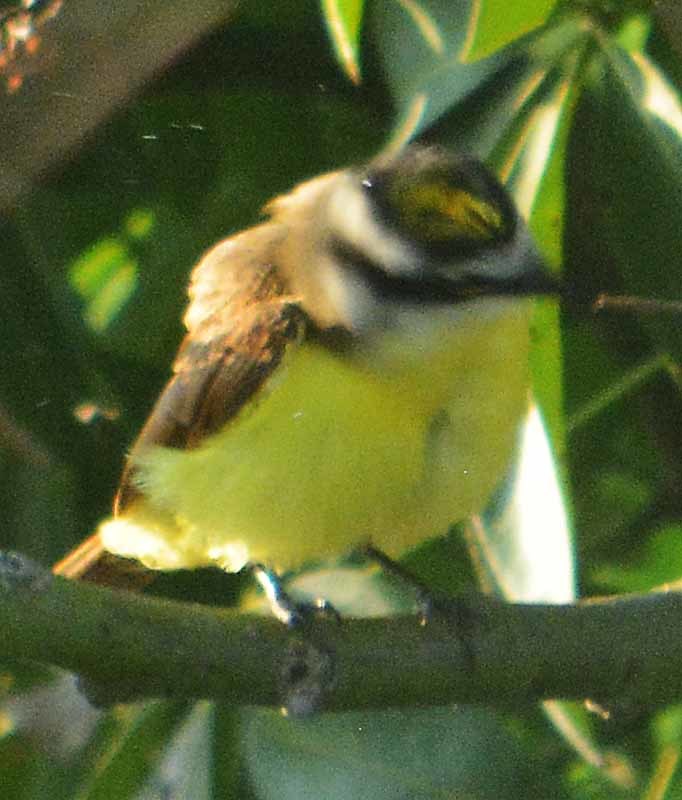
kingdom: Animalia
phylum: Chordata
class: Aves
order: Passeriformes
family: Tyrannidae
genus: Myiozetetes
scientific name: Myiozetetes similis
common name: Social flycatcher
